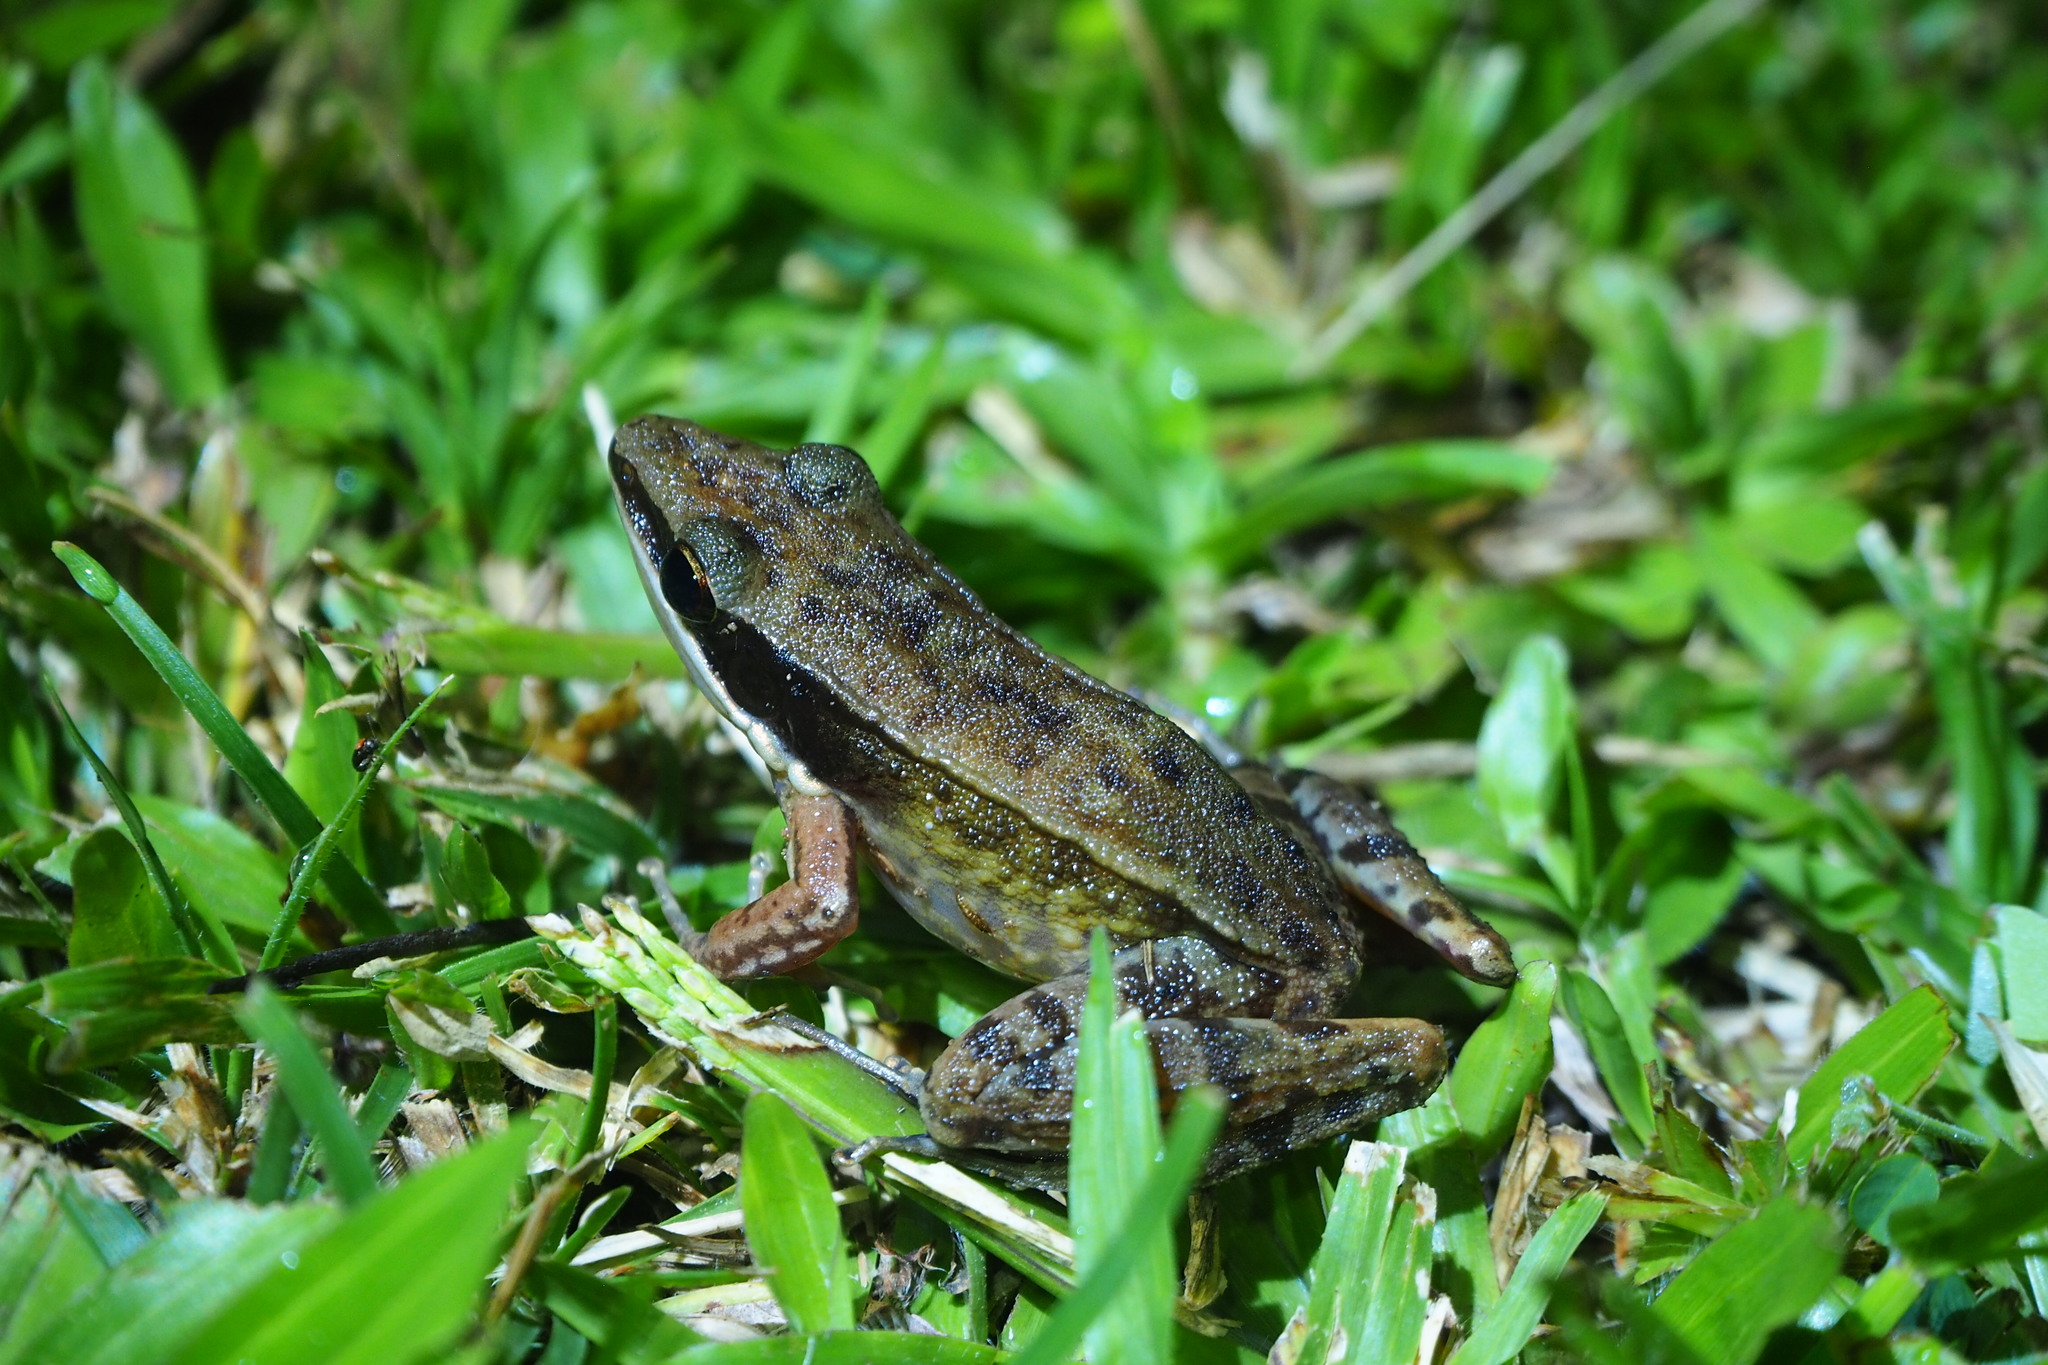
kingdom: Animalia
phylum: Chordata
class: Amphibia
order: Anura
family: Ranidae
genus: Bijurana
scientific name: Bijurana nicobariensis
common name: Cricket frog
